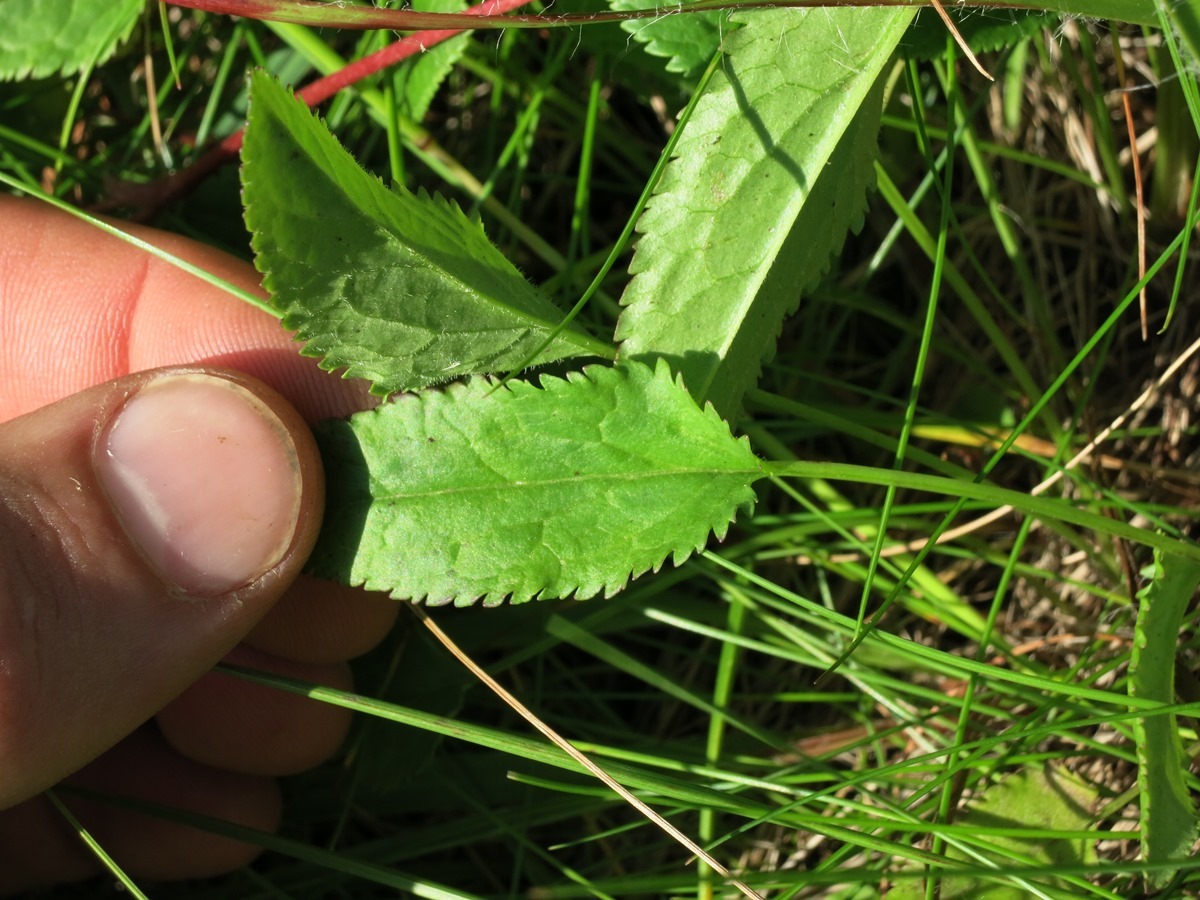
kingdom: Plantae
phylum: Tracheophyta
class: Magnoliopsida
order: Asterales
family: Asteraceae
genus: Packera
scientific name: Packera schweinitziana
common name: Schweinitz's ragwort
